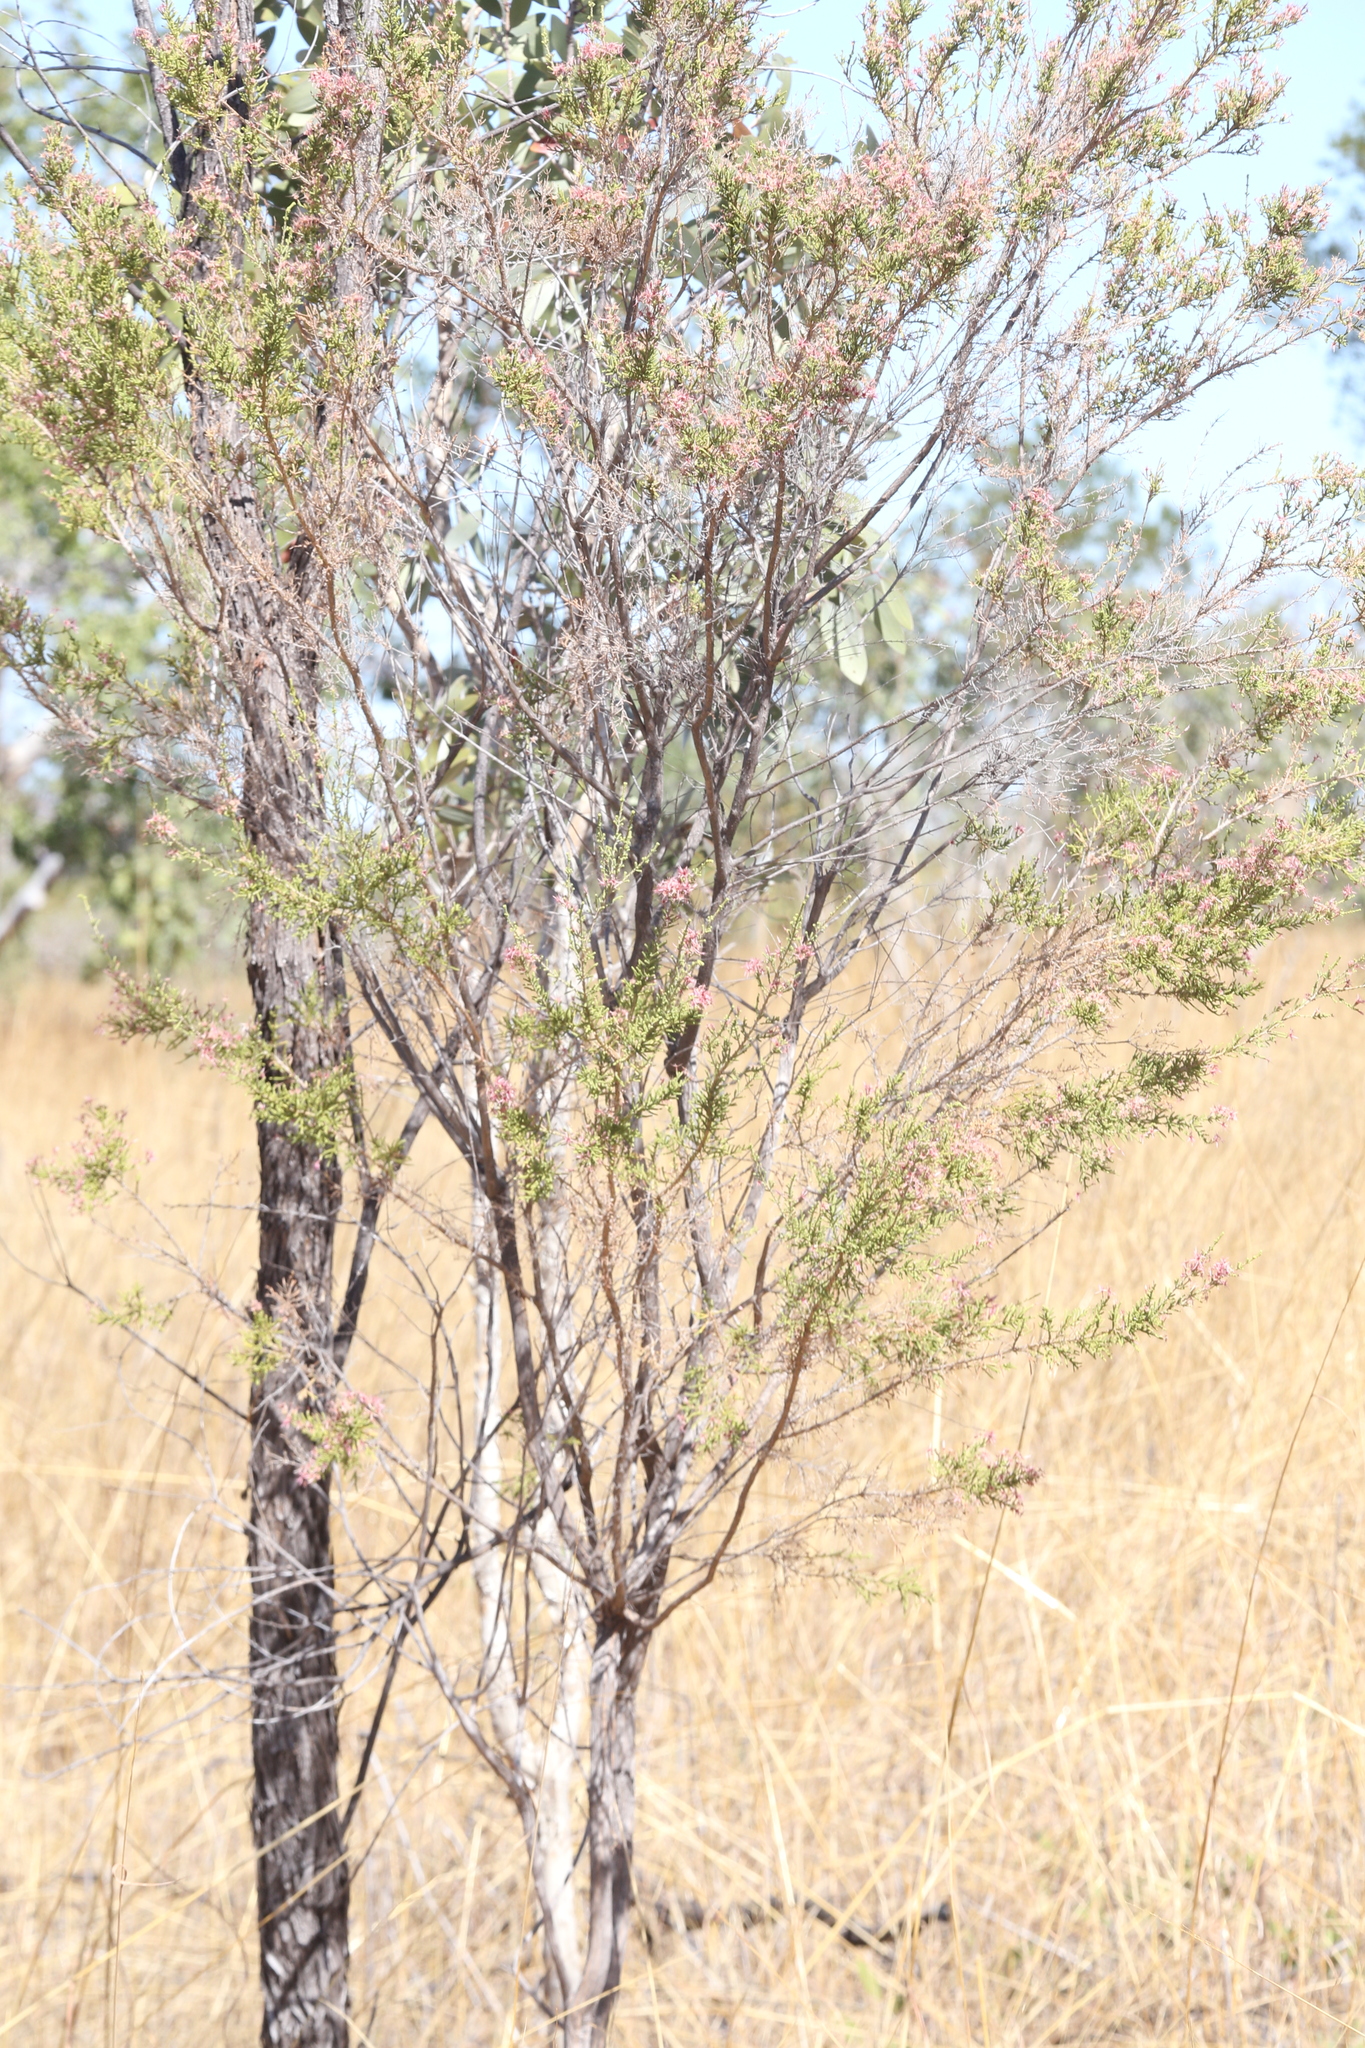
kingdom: Plantae
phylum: Tracheophyta
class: Magnoliopsida
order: Myrtales
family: Myrtaceae
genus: Calytrix
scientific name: Calytrix exstipulata
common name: Kimberley heather
